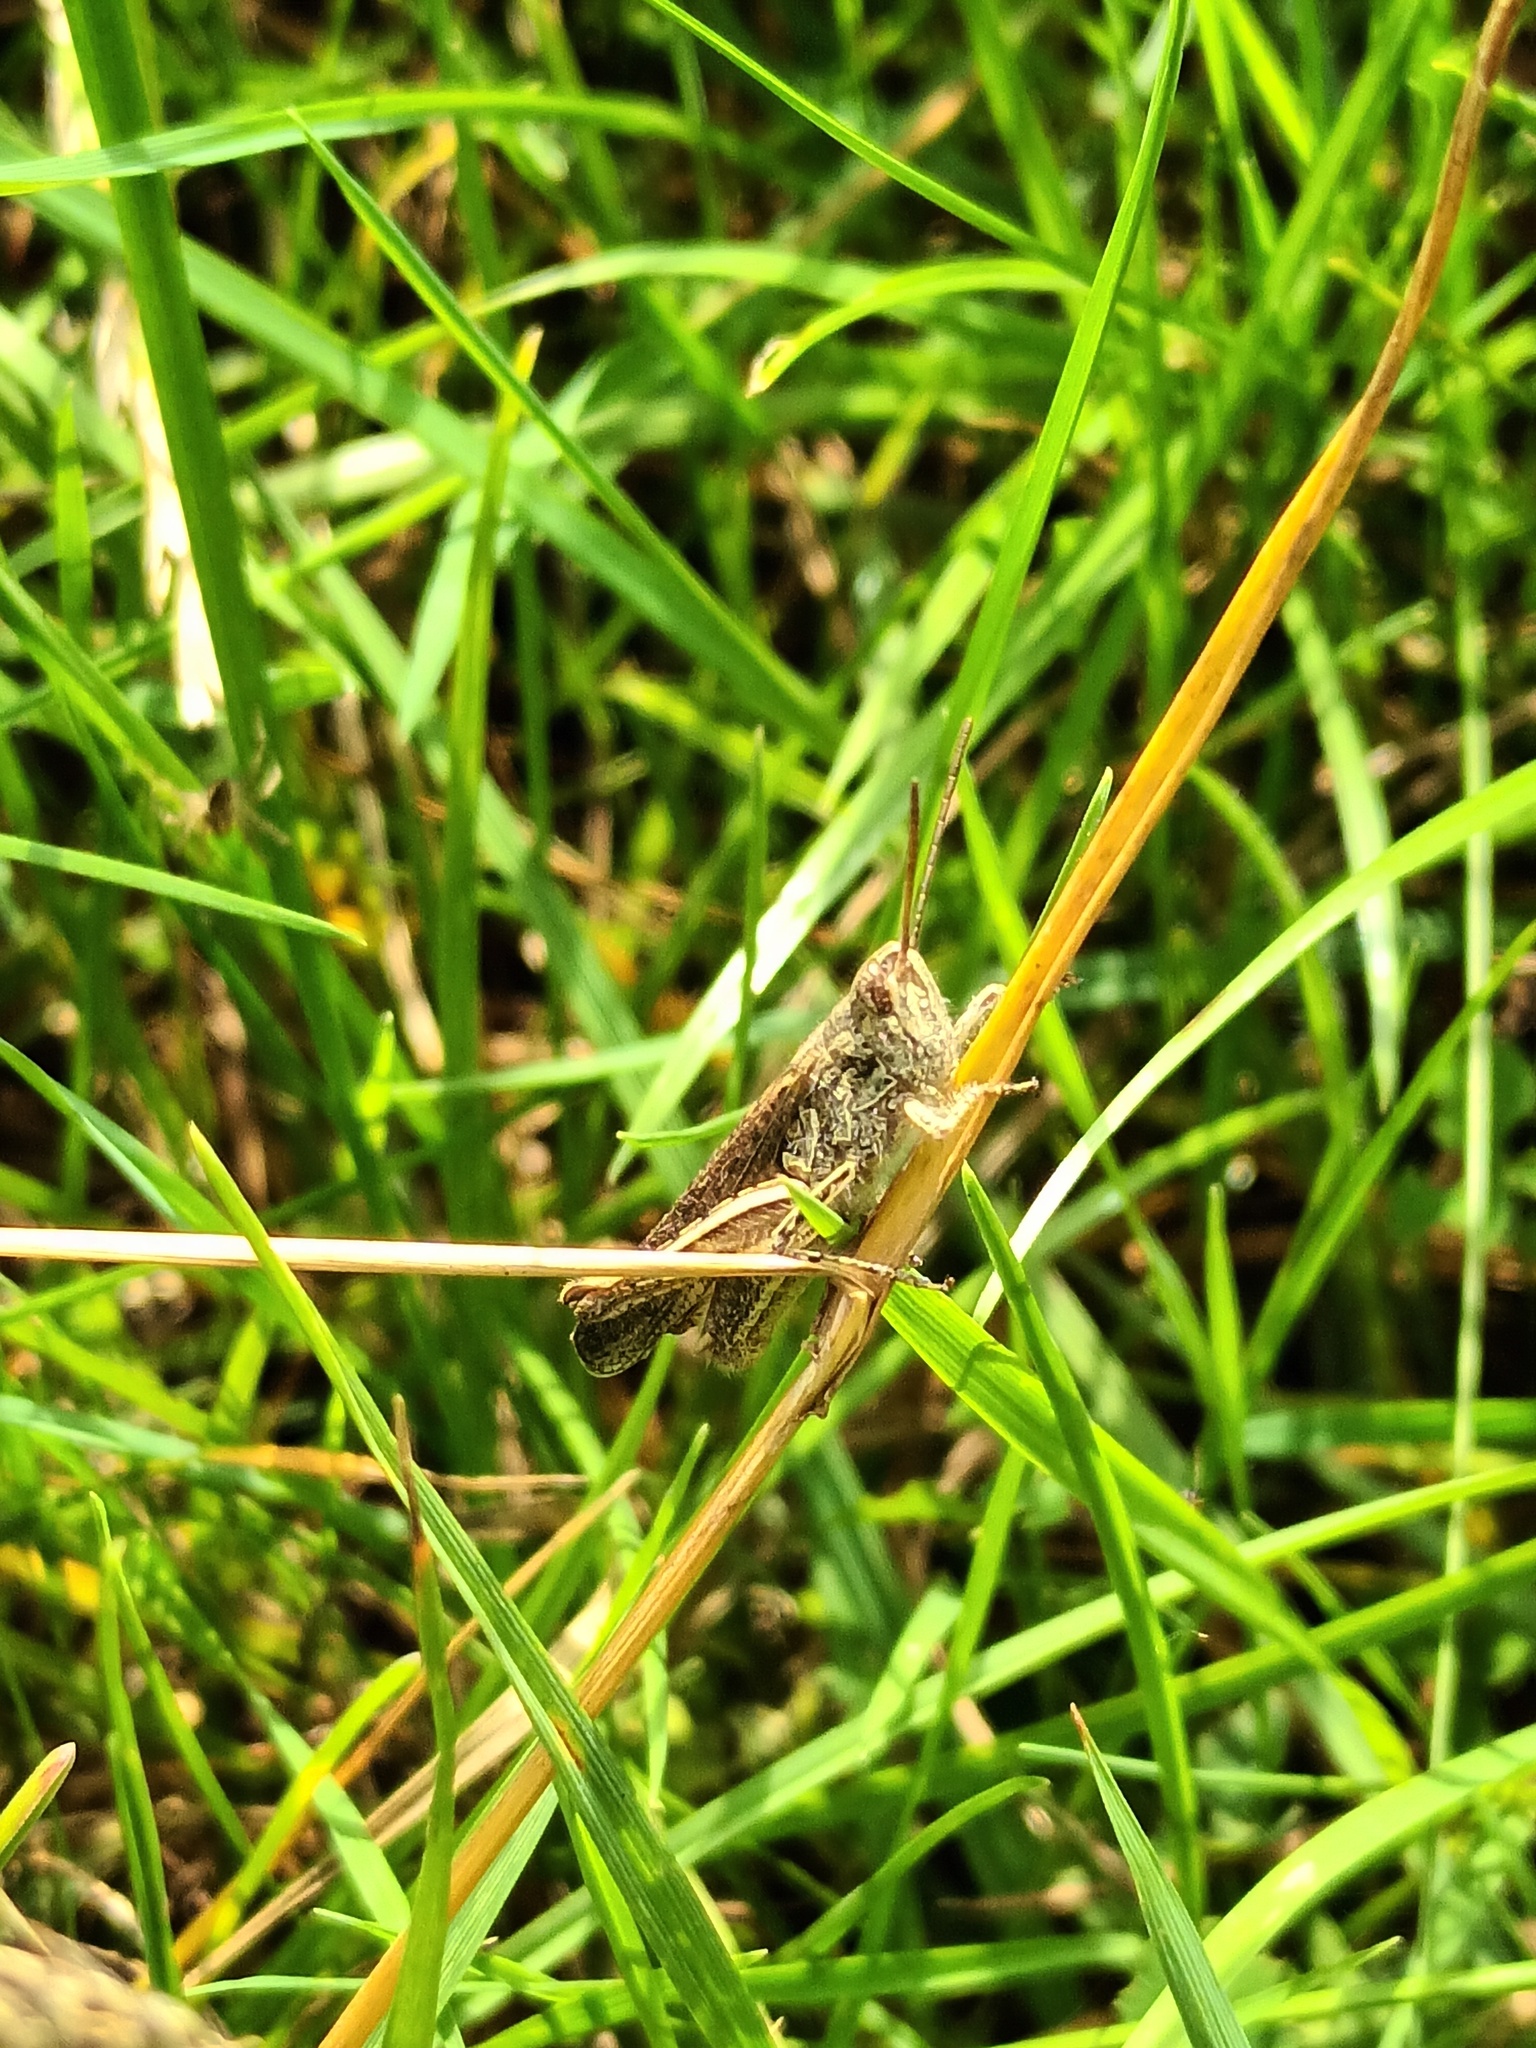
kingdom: Animalia
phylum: Arthropoda
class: Insecta
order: Orthoptera
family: Acrididae
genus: Chorthippus
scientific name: Chorthippus brunneus
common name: Field grasshopper
